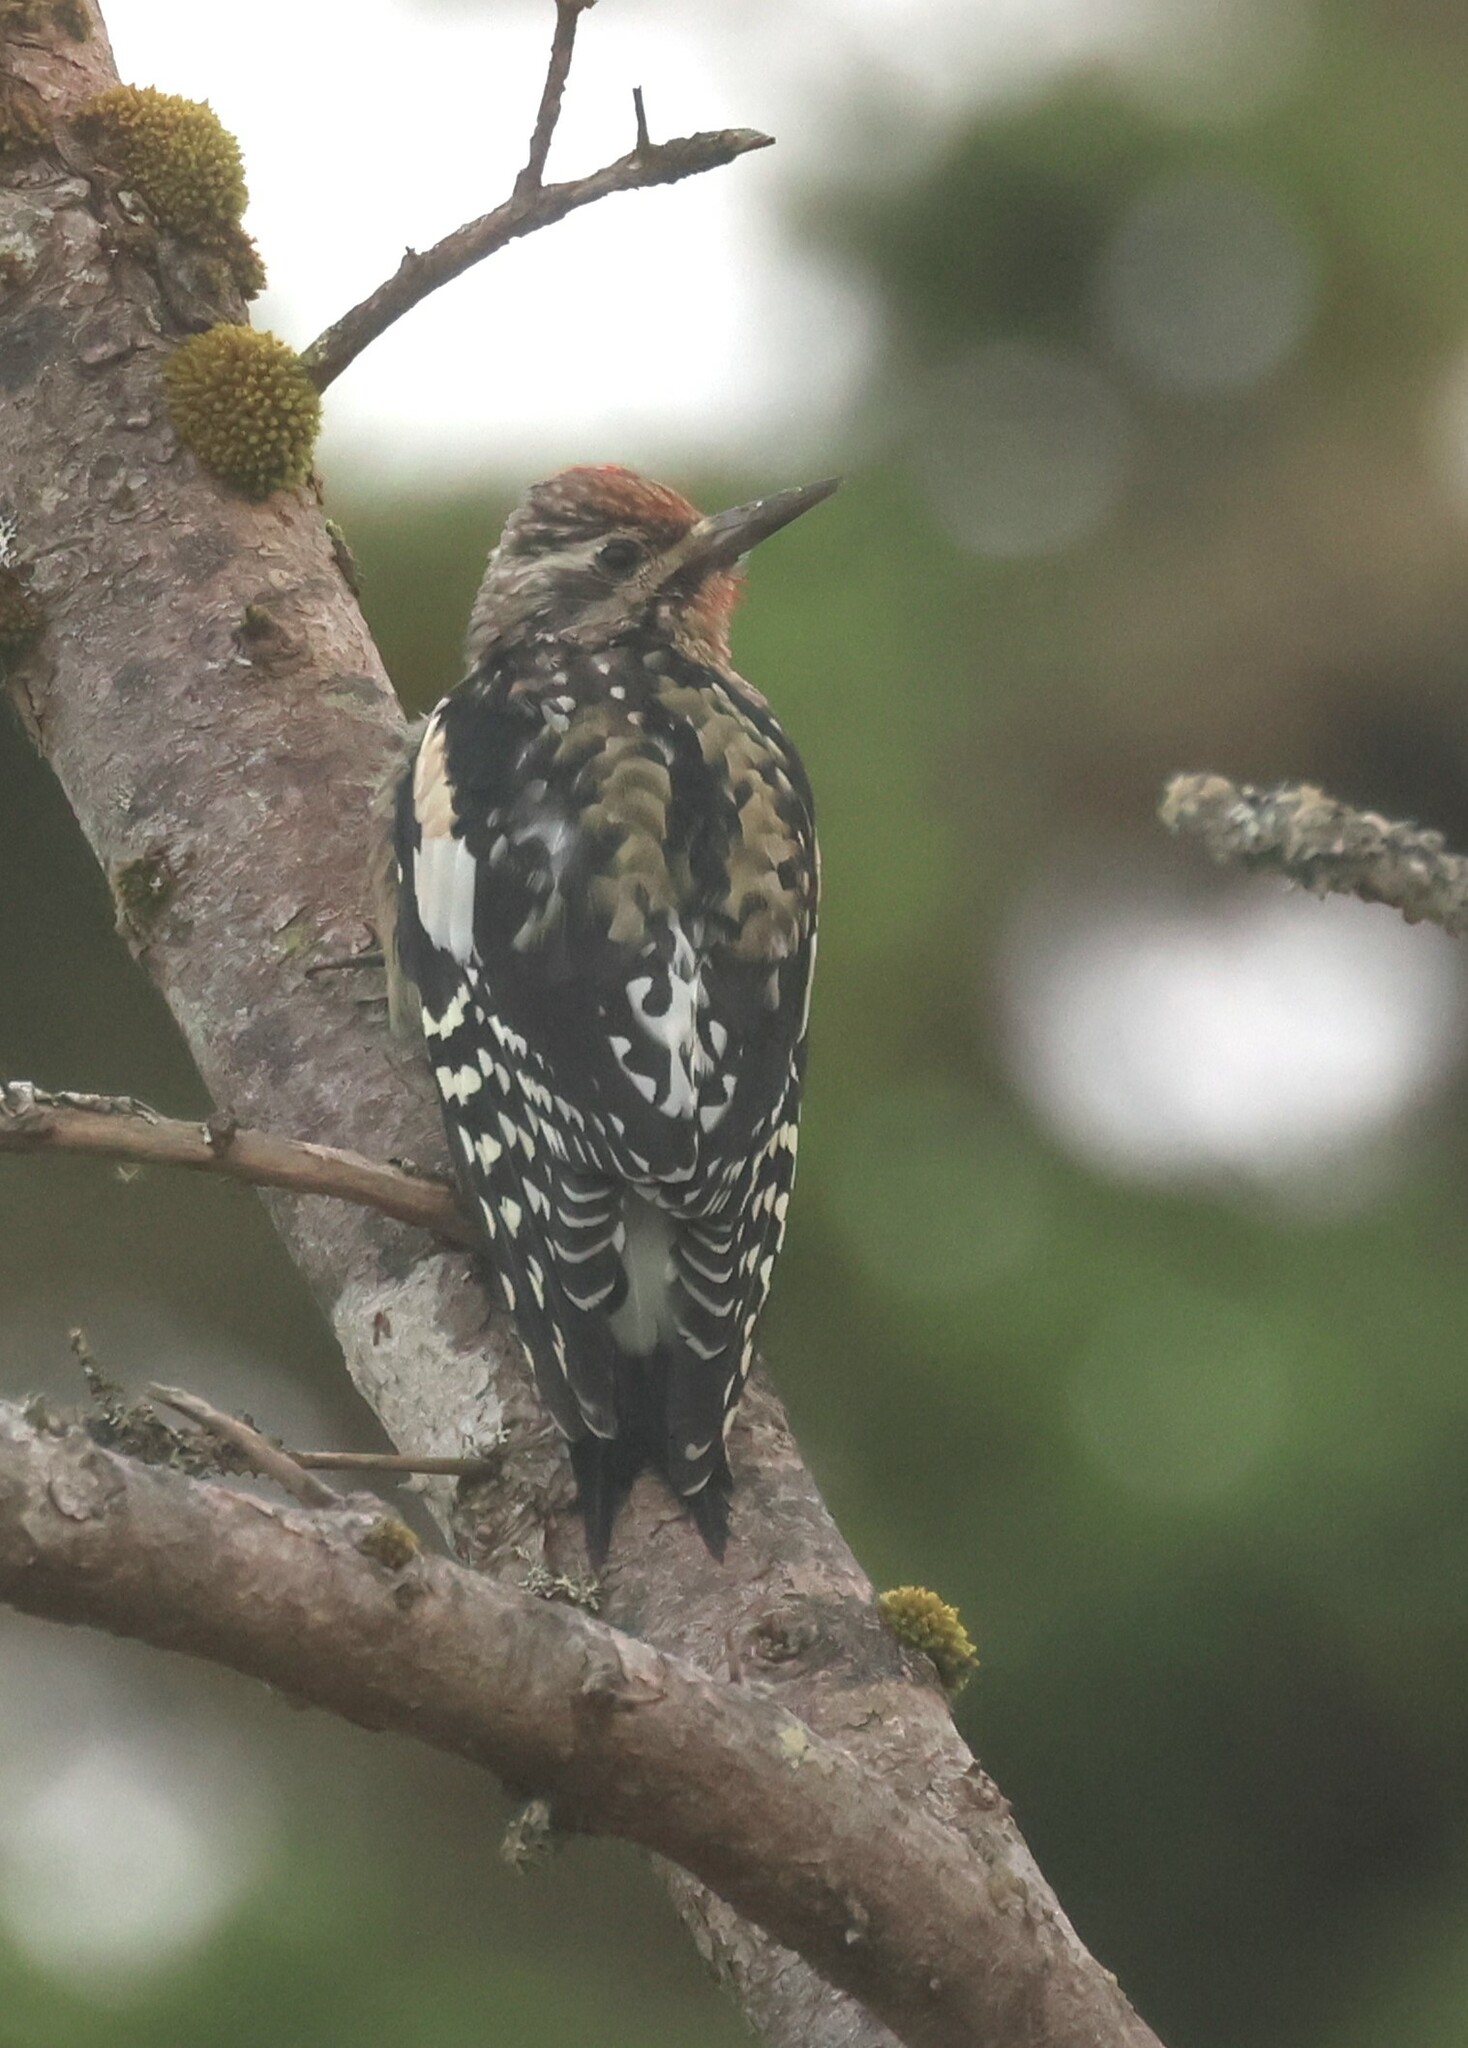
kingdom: Animalia
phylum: Chordata
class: Aves
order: Piciformes
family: Picidae
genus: Sphyrapicus
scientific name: Sphyrapicus varius
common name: Yellow-bellied sapsucker
